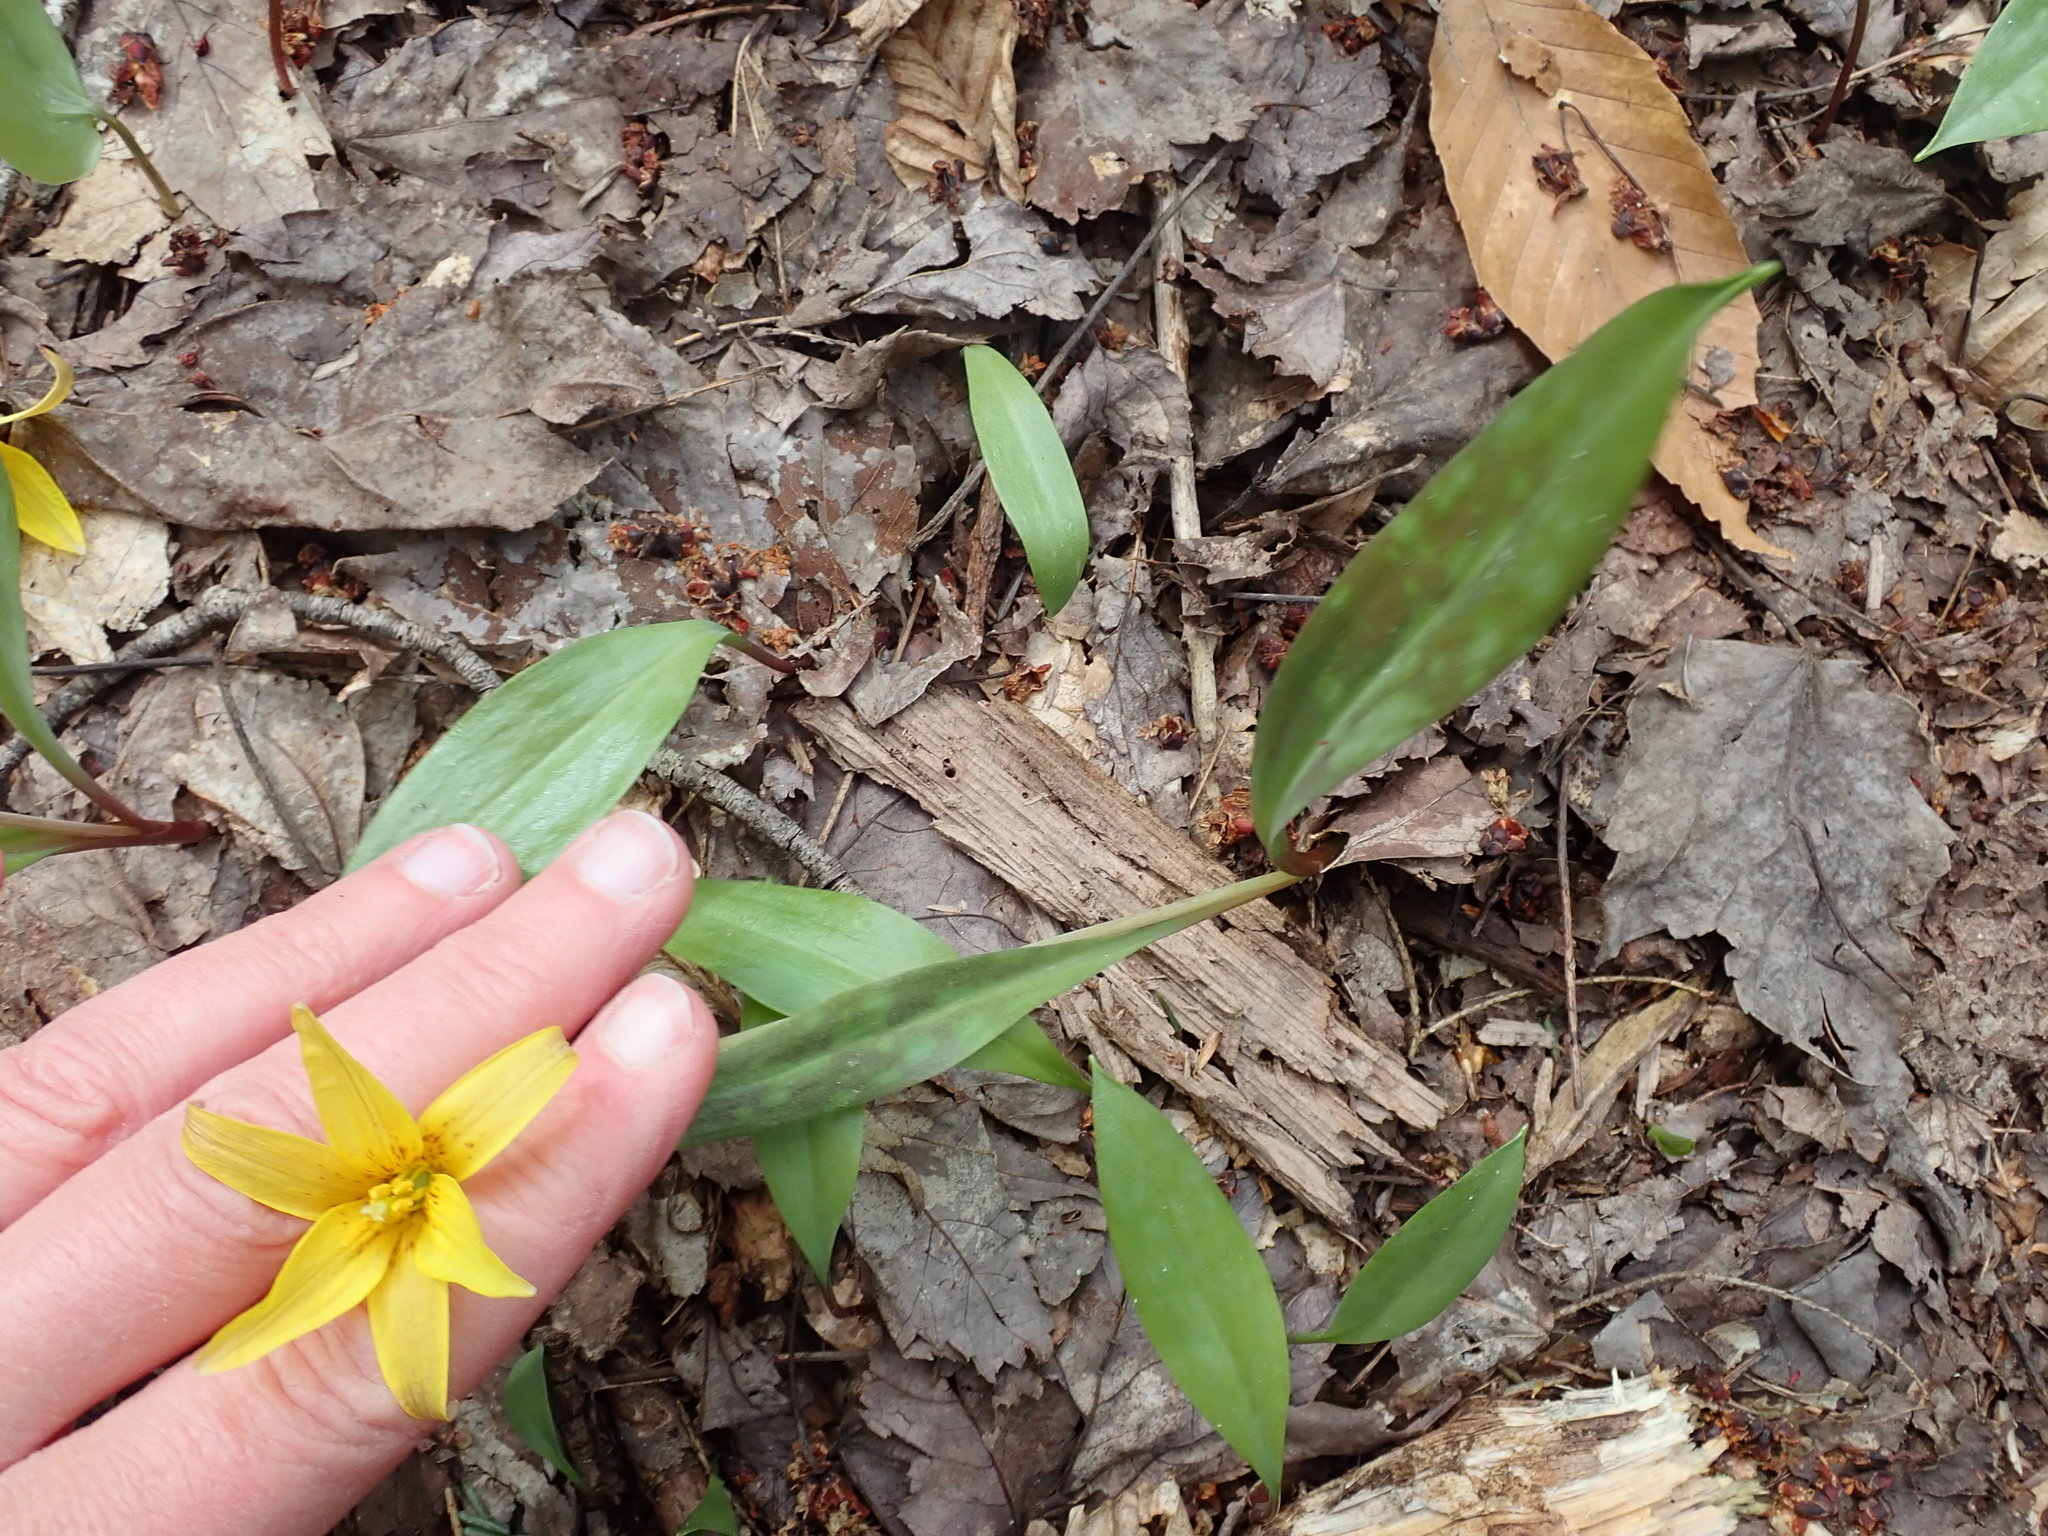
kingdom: Plantae
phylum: Tracheophyta
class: Liliopsida
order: Liliales
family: Liliaceae
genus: Erythronium
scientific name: Erythronium americanum
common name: Yellow adder's-tongue
